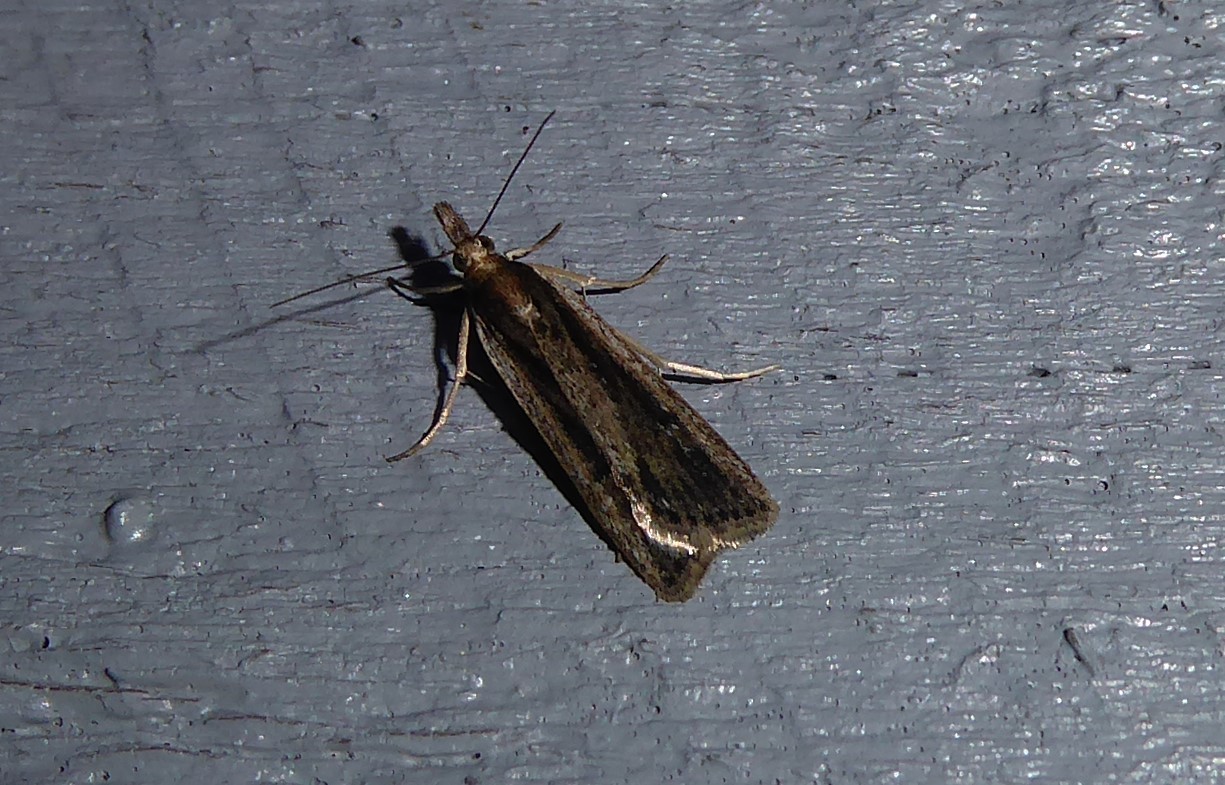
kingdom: Animalia
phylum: Arthropoda
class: Insecta
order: Lepidoptera
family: Crambidae
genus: Eudonia
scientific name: Eudonia sabulosella
